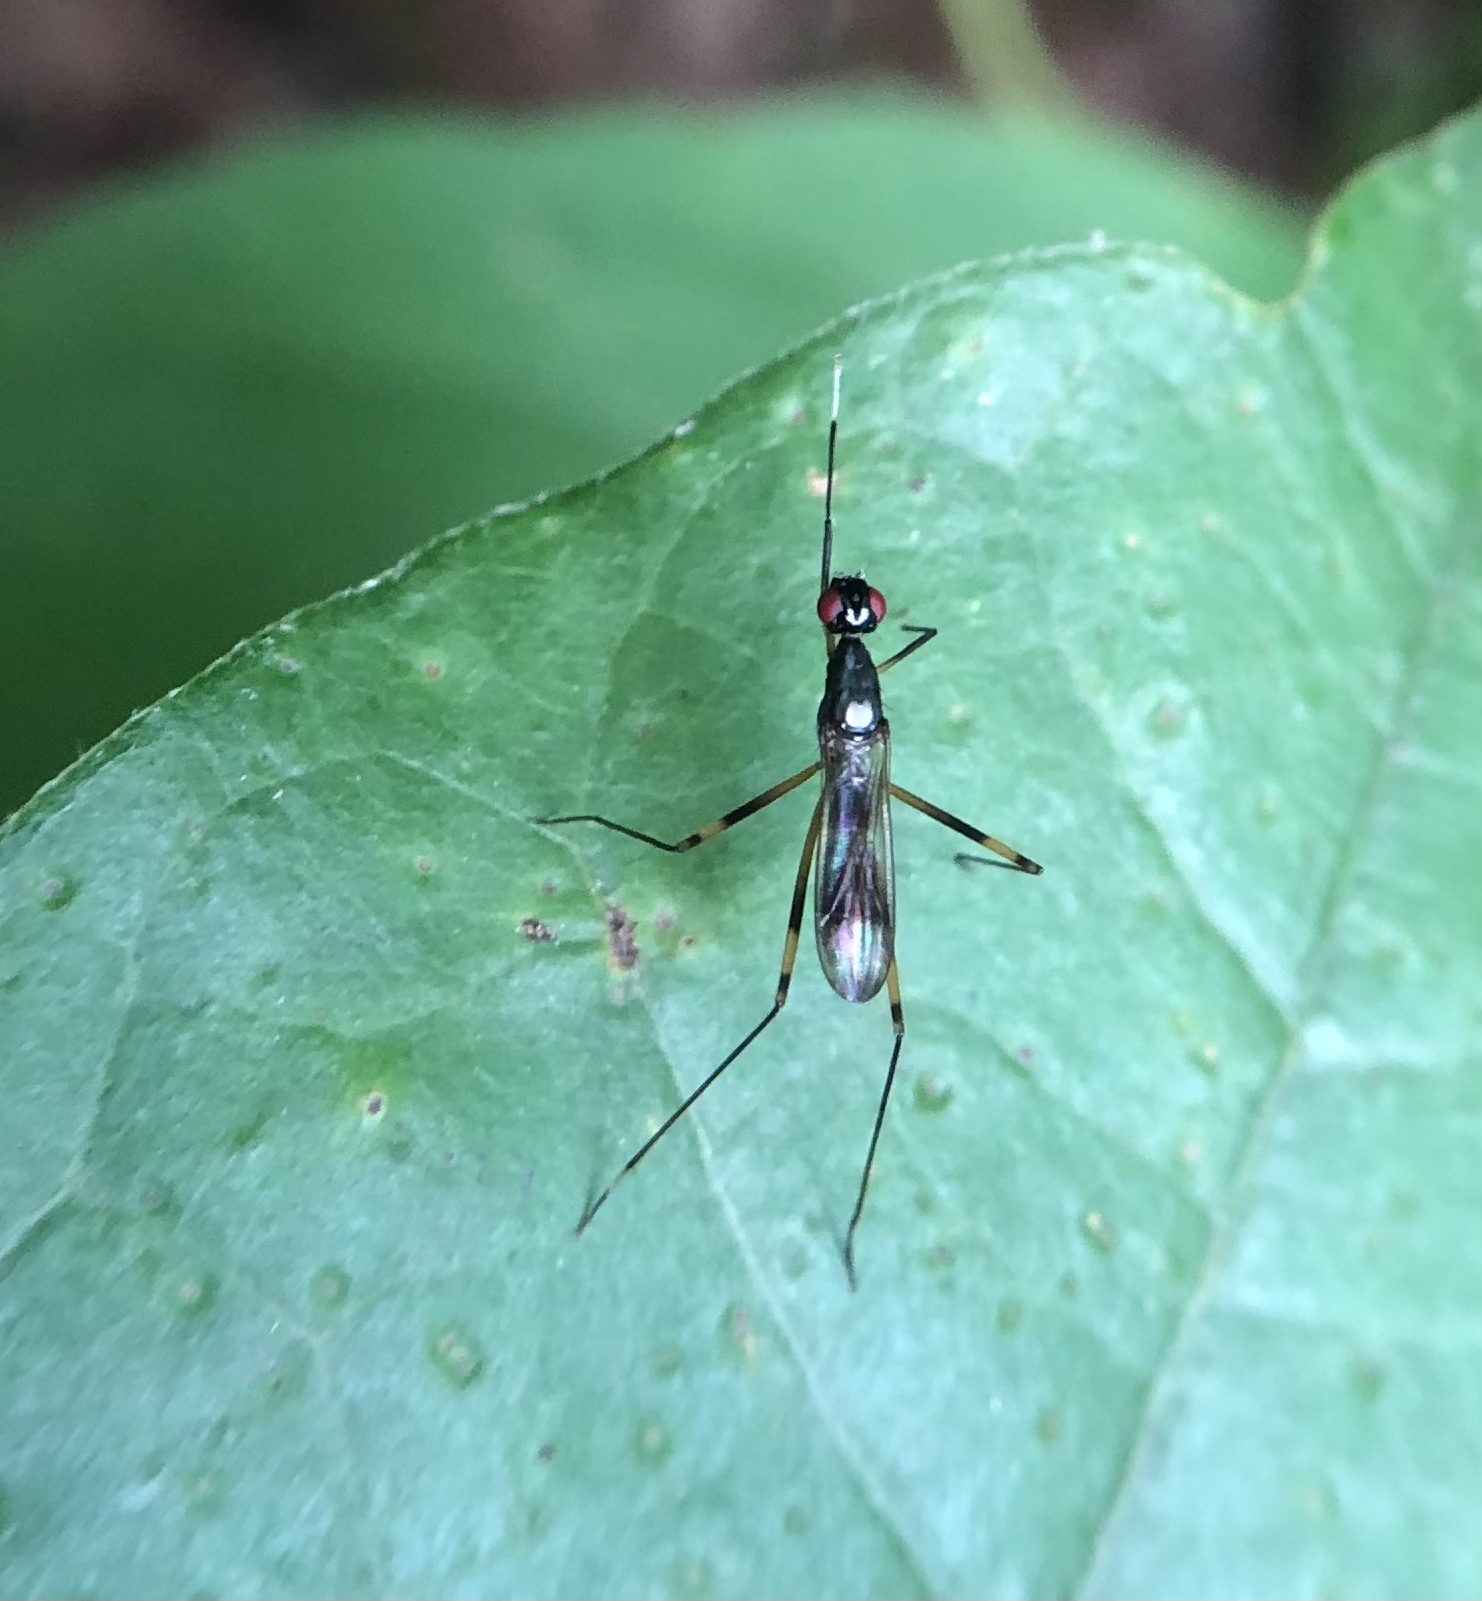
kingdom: Animalia
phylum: Arthropoda
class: Insecta
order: Diptera
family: Micropezidae
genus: Rainieria
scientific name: Rainieria antennaepes
